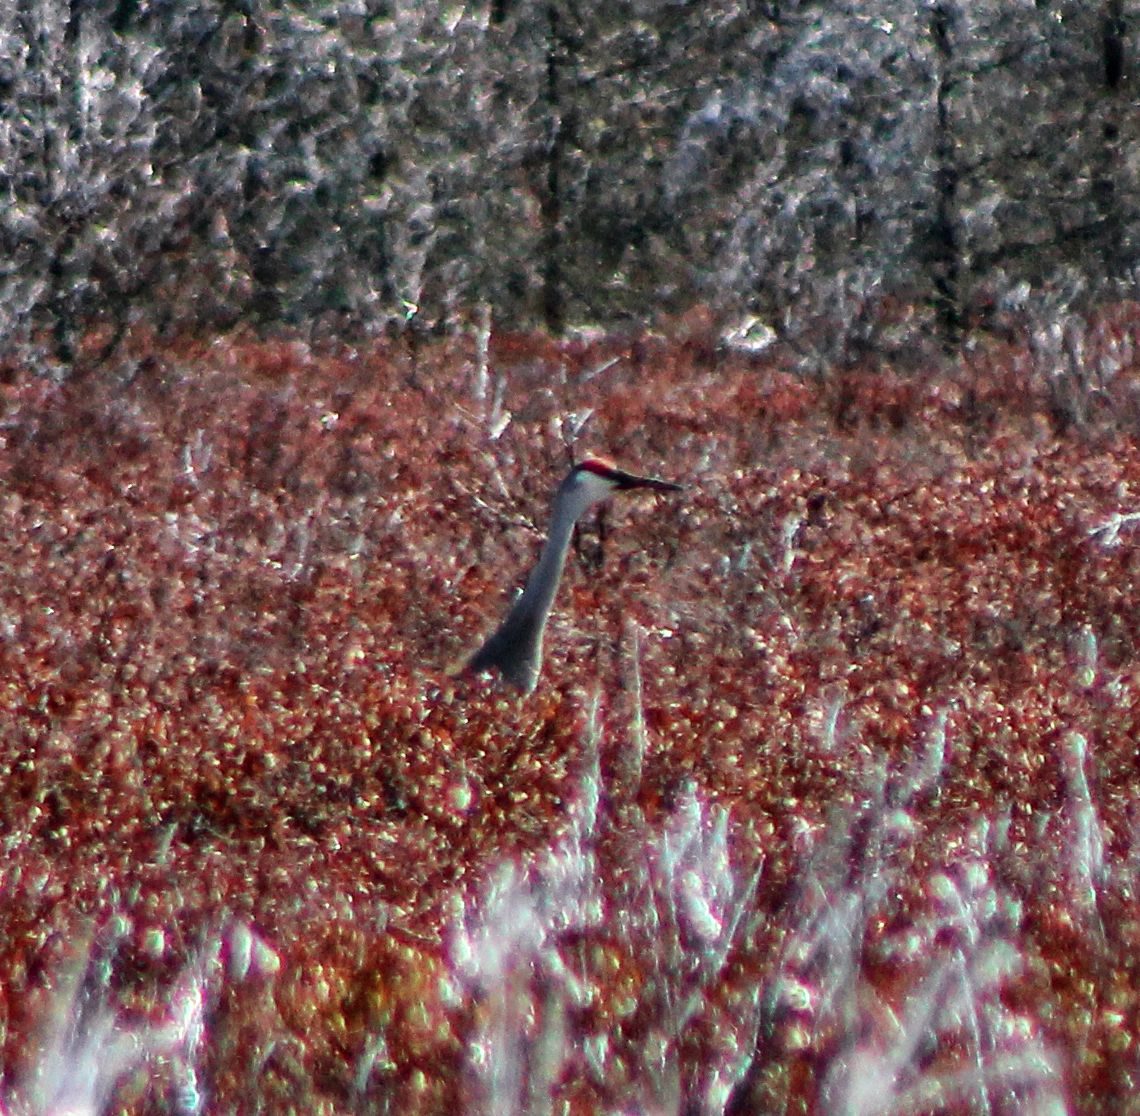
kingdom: Animalia
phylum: Chordata
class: Aves
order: Gruiformes
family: Gruidae
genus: Grus
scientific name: Grus canadensis
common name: Sandhill crane
